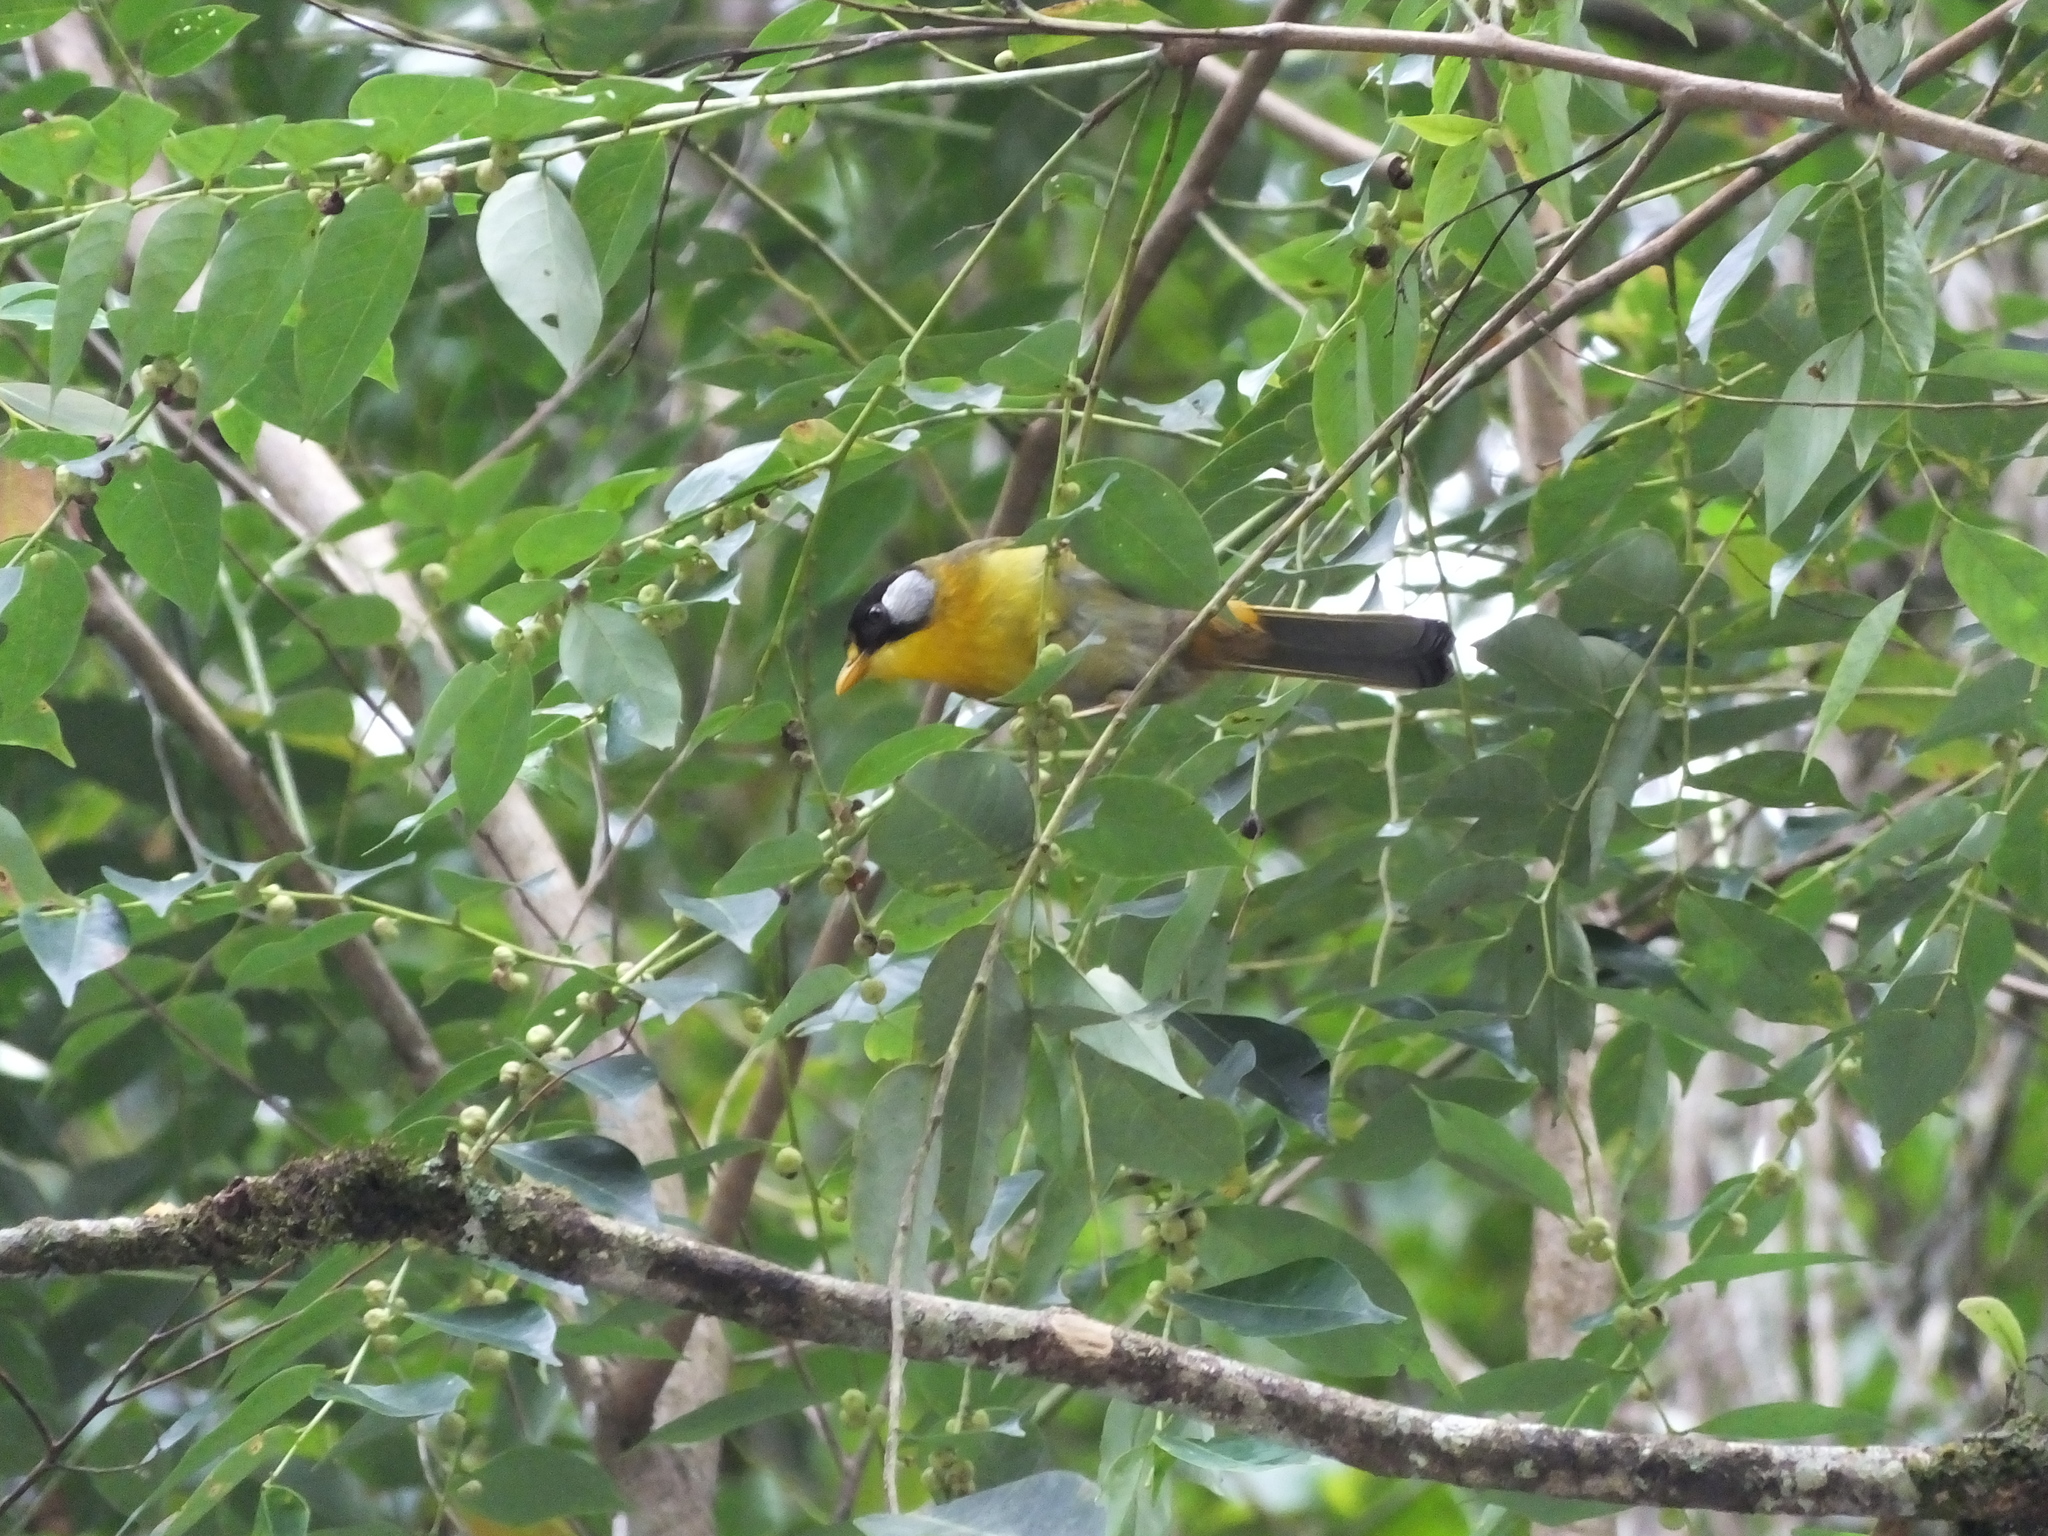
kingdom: Animalia
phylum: Chordata
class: Aves
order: Passeriformes
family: Leiothrichidae
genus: Leiothrix
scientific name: Leiothrix argentauris
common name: Silver-eared mesia
